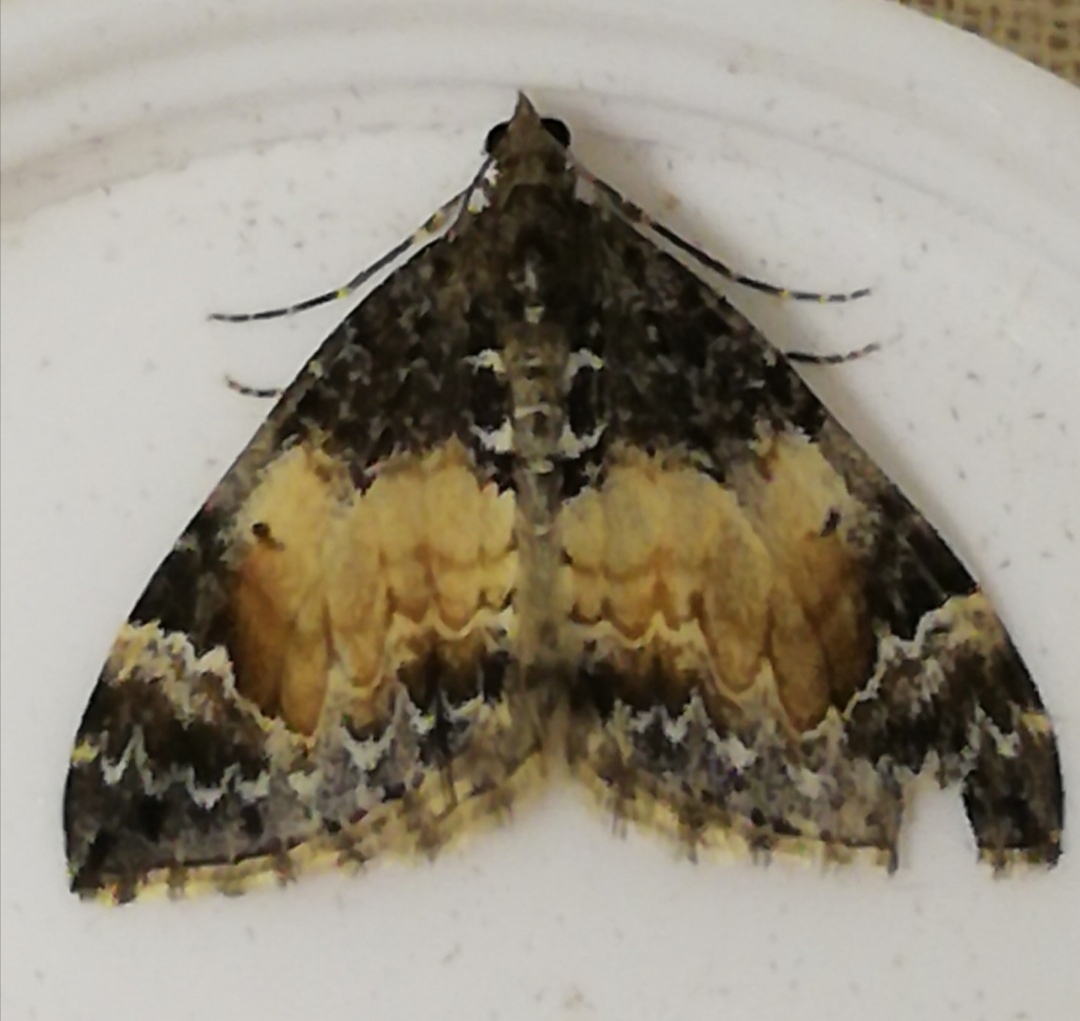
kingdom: Animalia
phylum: Arthropoda
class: Insecta
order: Lepidoptera
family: Geometridae
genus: Dysstroma
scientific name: Dysstroma truncata
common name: Common marbled carpet
